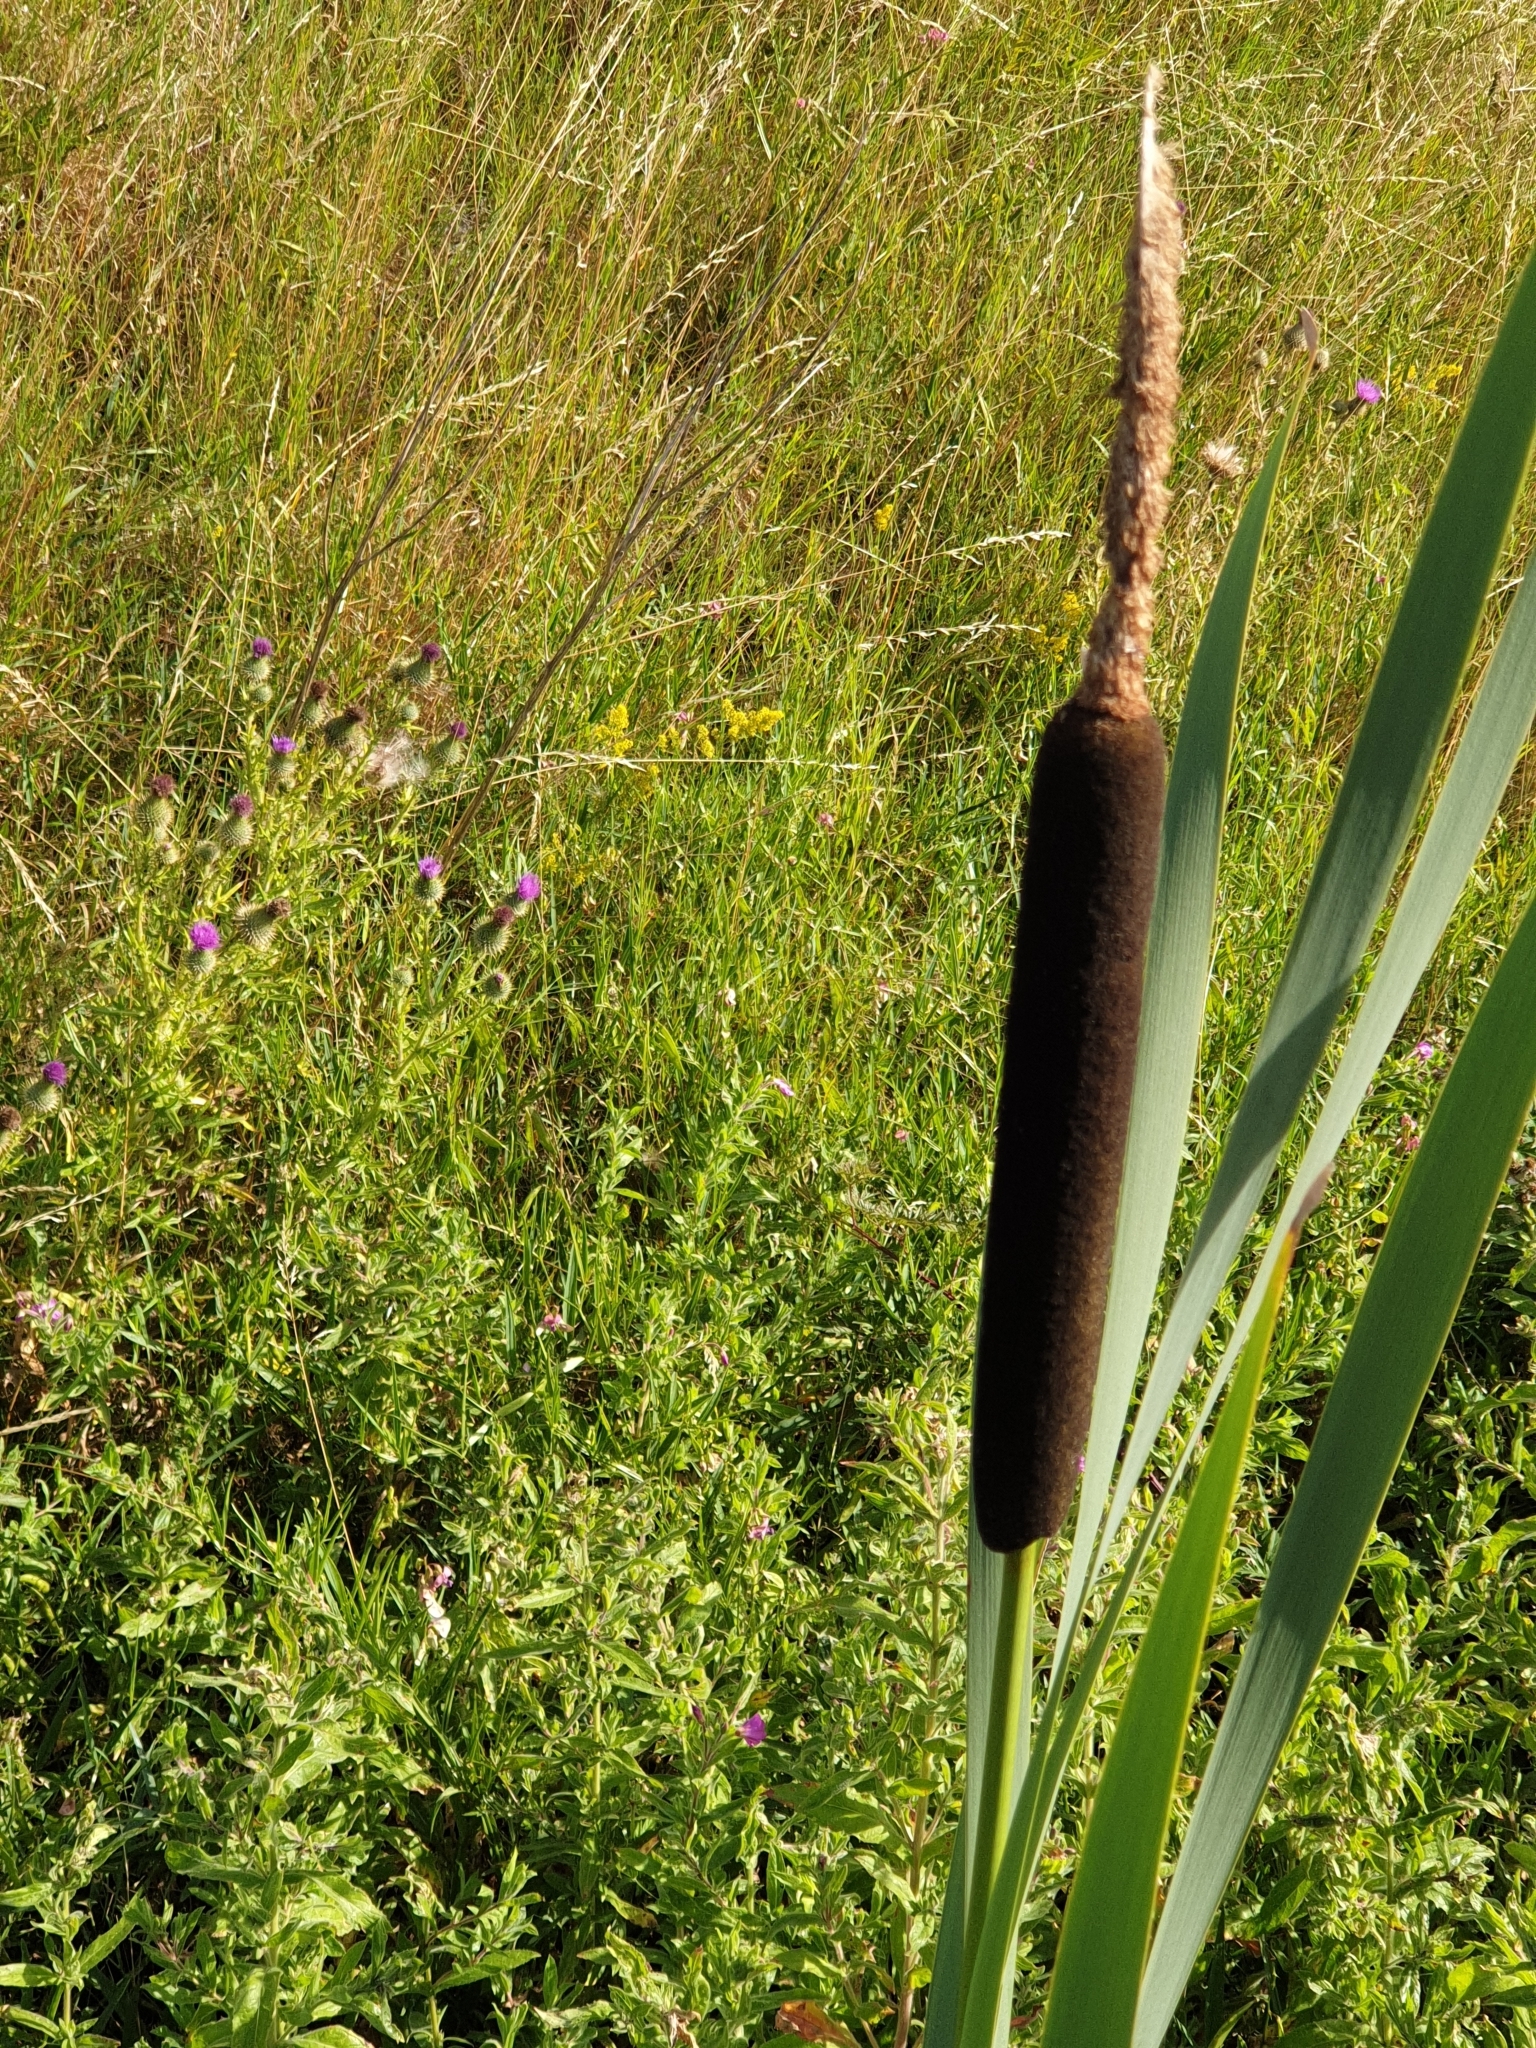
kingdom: Plantae
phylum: Tracheophyta
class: Liliopsida
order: Poales
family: Typhaceae
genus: Typha
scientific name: Typha latifolia
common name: Broadleaf cattail
